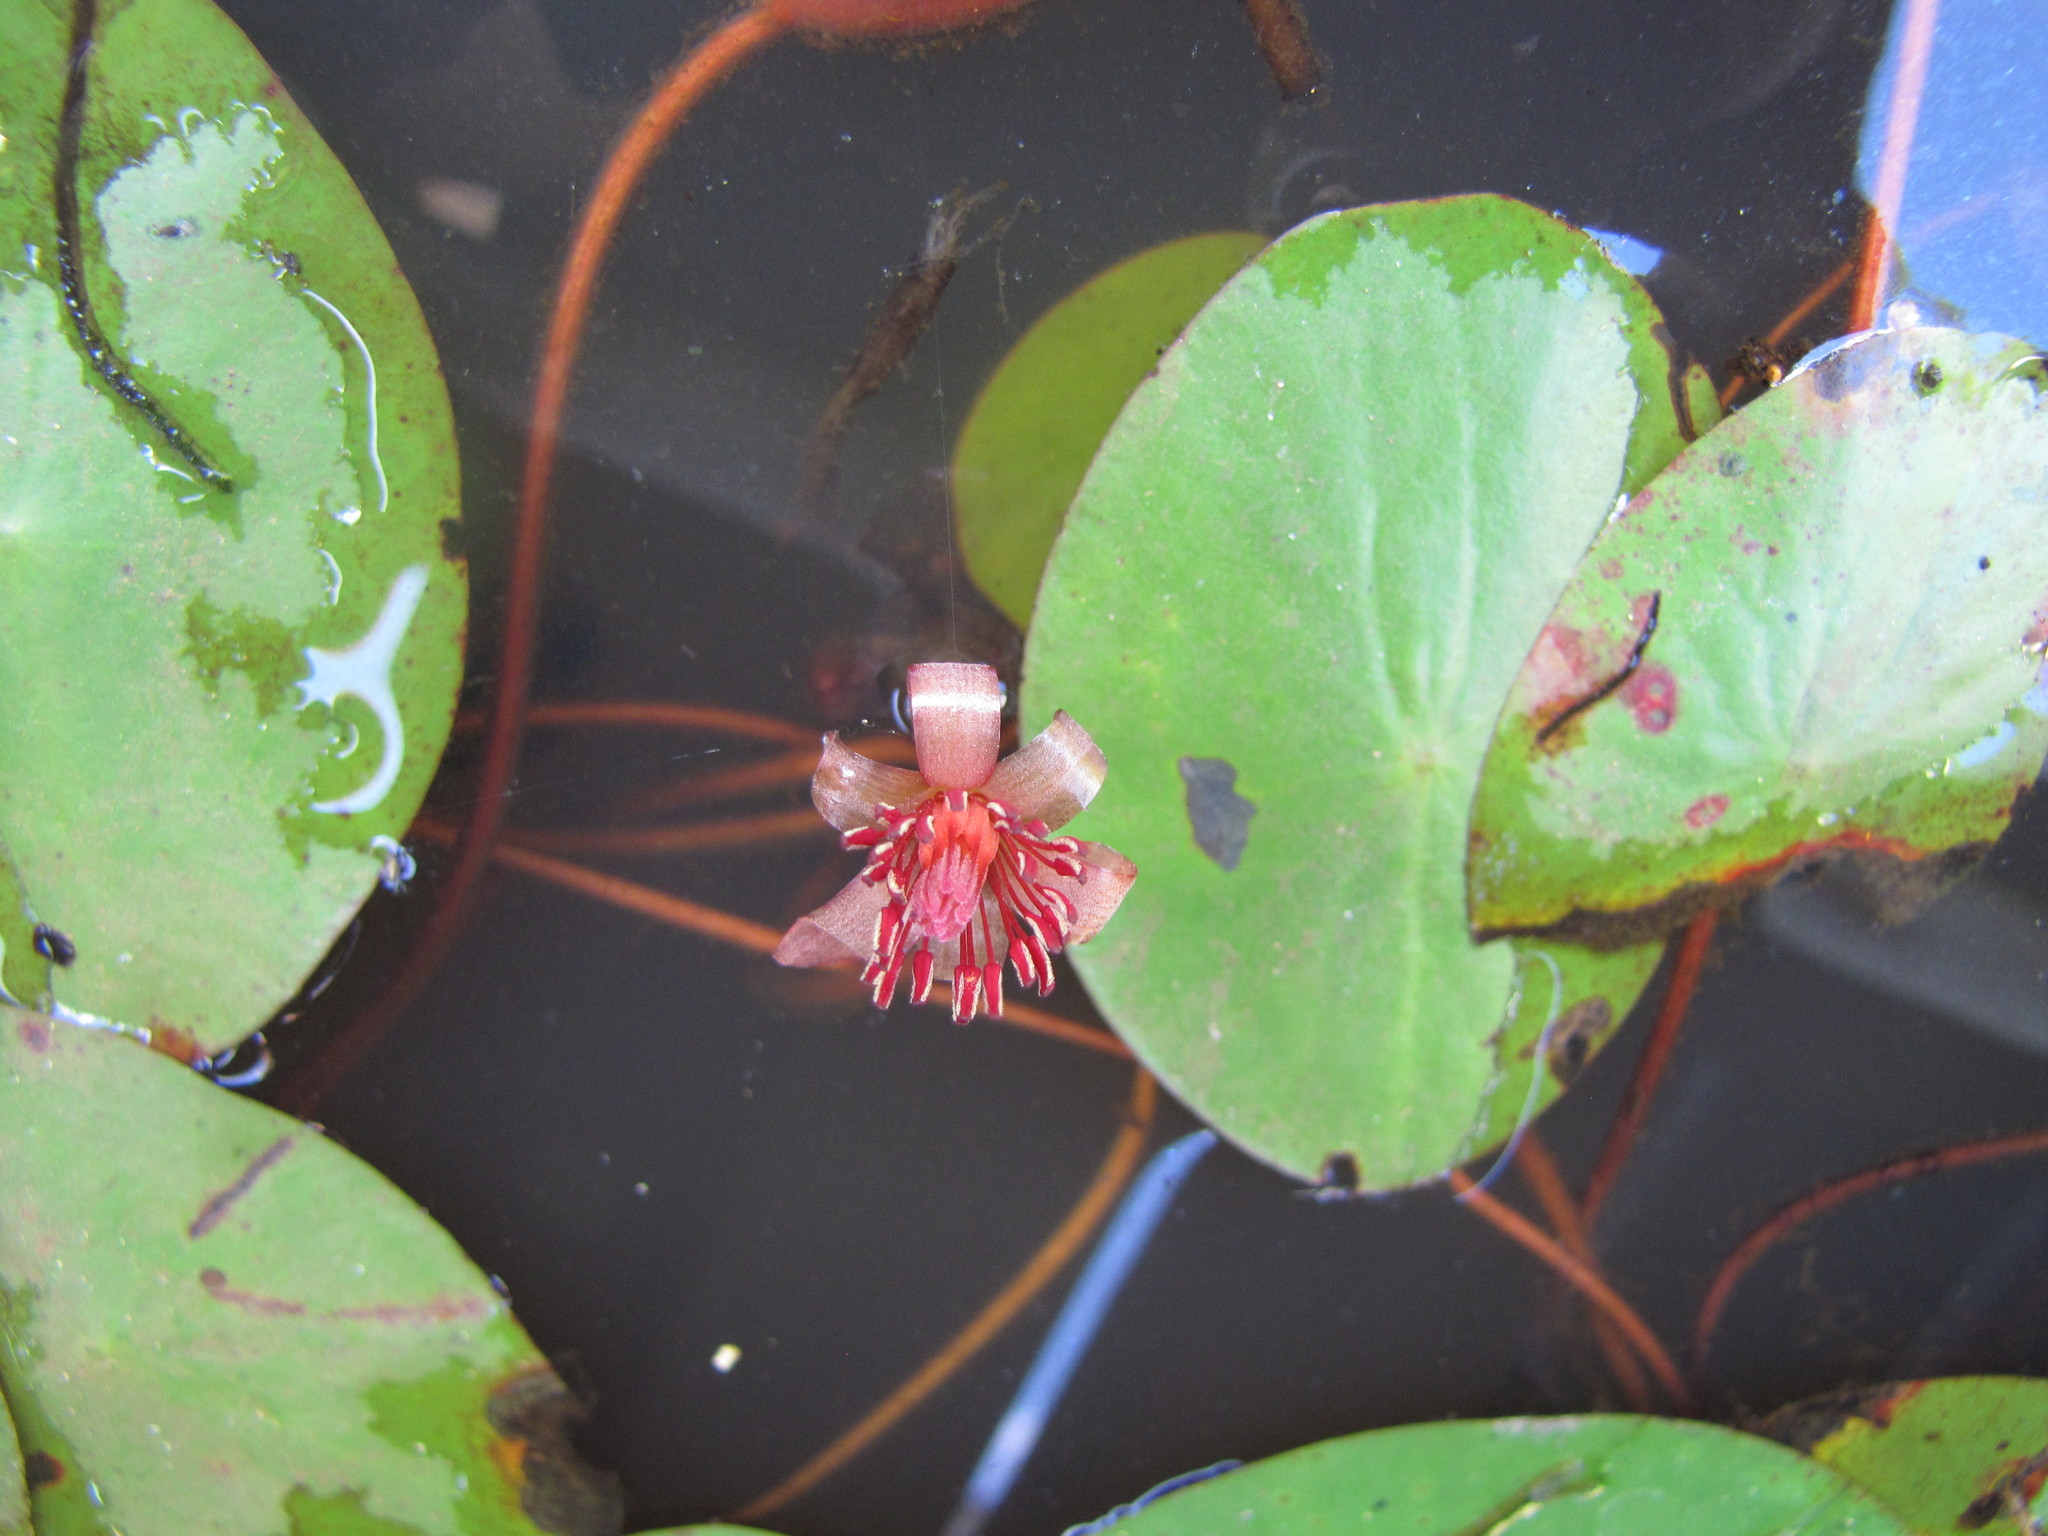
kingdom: Plantae
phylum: Tracheophyta
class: Magnoliopsida
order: Nymphaeales
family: Cabombaceae
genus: Brasenia
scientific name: Brasenia schreberi
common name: Water-shield
